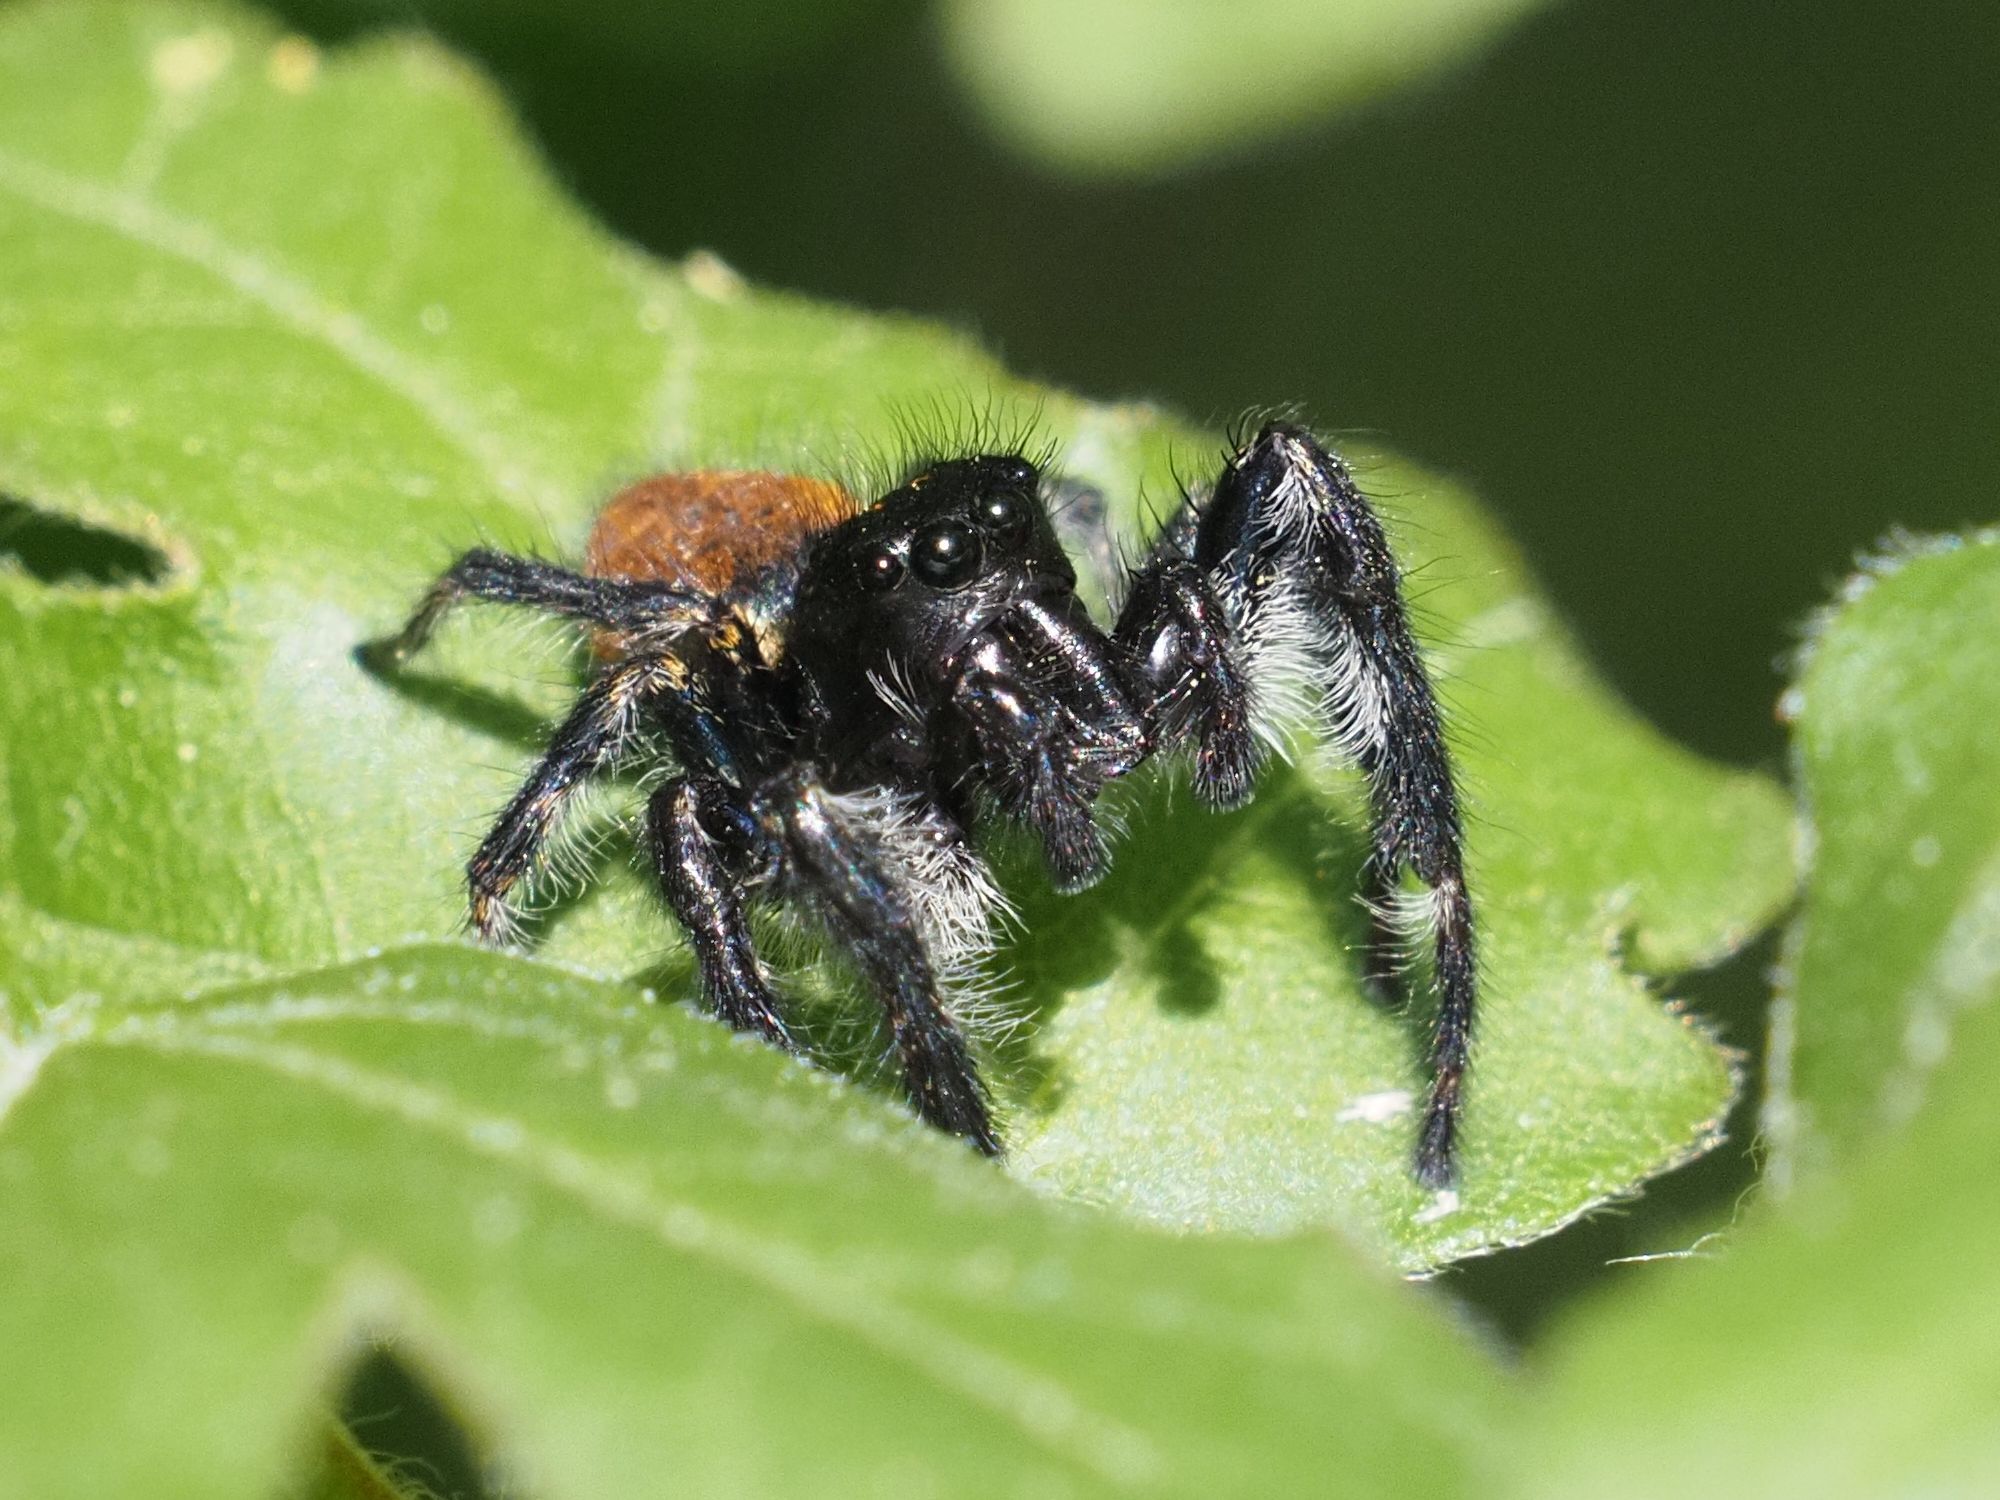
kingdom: Animalia
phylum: Arthropoda
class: Arachnida
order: Araneae
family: Salticidae
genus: Carrhotus
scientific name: Carrhotus xanthogramma
